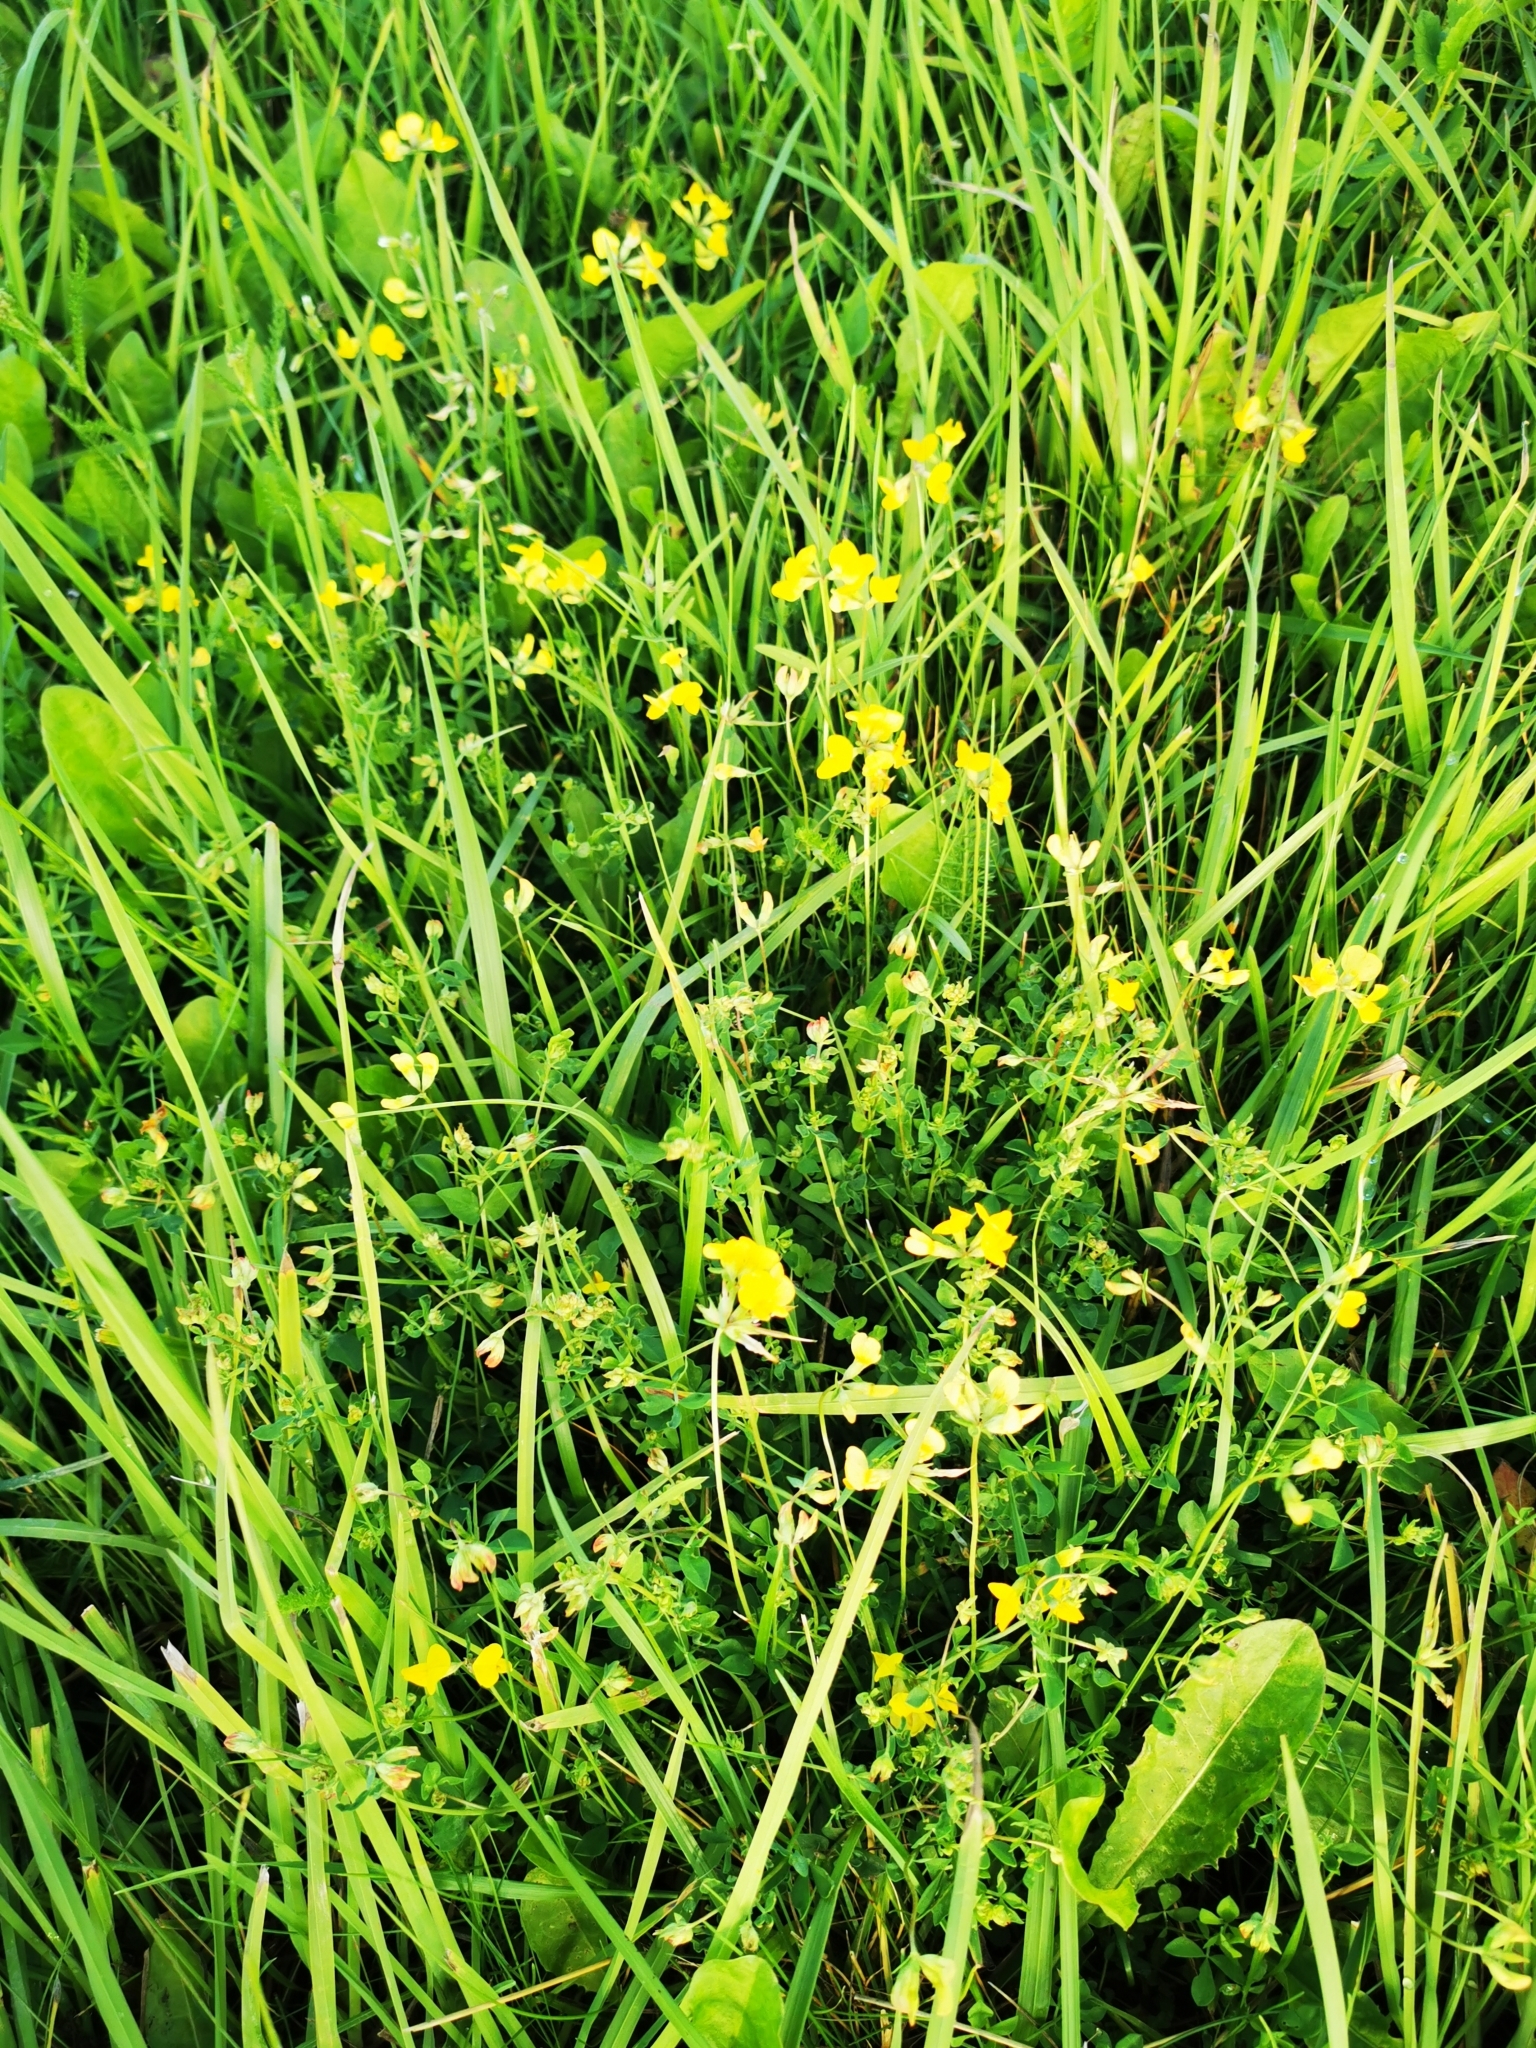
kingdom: Plantae
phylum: Tracheophyta
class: Magnoliopsida
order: Fabales
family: Fabaceae
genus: Lotus
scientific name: Lotus corniculatus
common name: Common bird's-foot-trefoil
